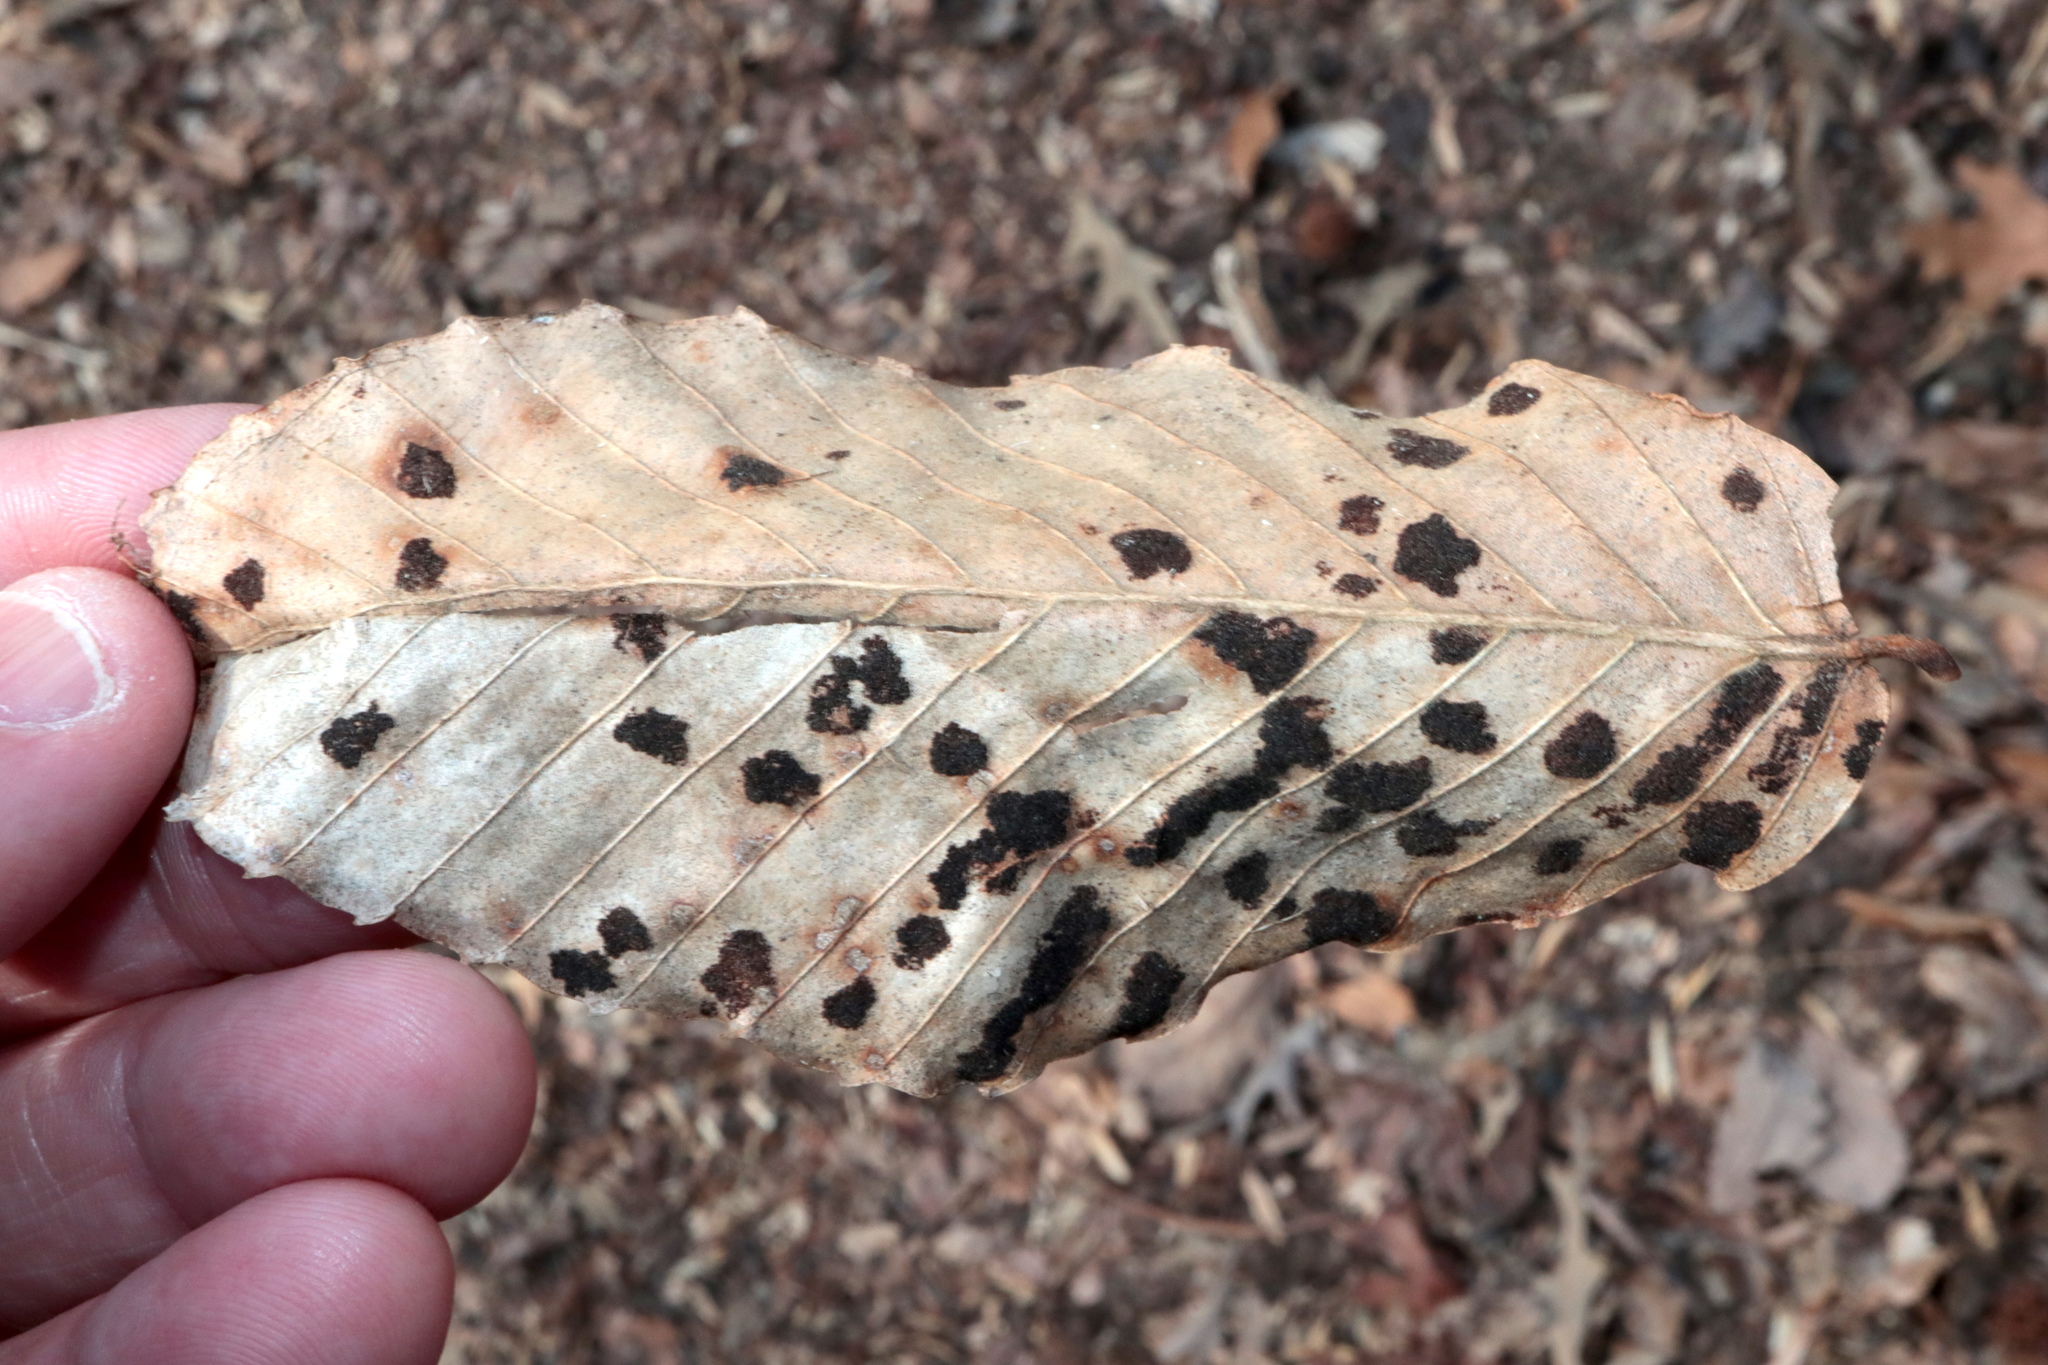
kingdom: Animalia
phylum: Arthropoda
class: Arachnida
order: Trombidiformes
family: Eriophyidae
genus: Acalitus
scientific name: Acalitus
